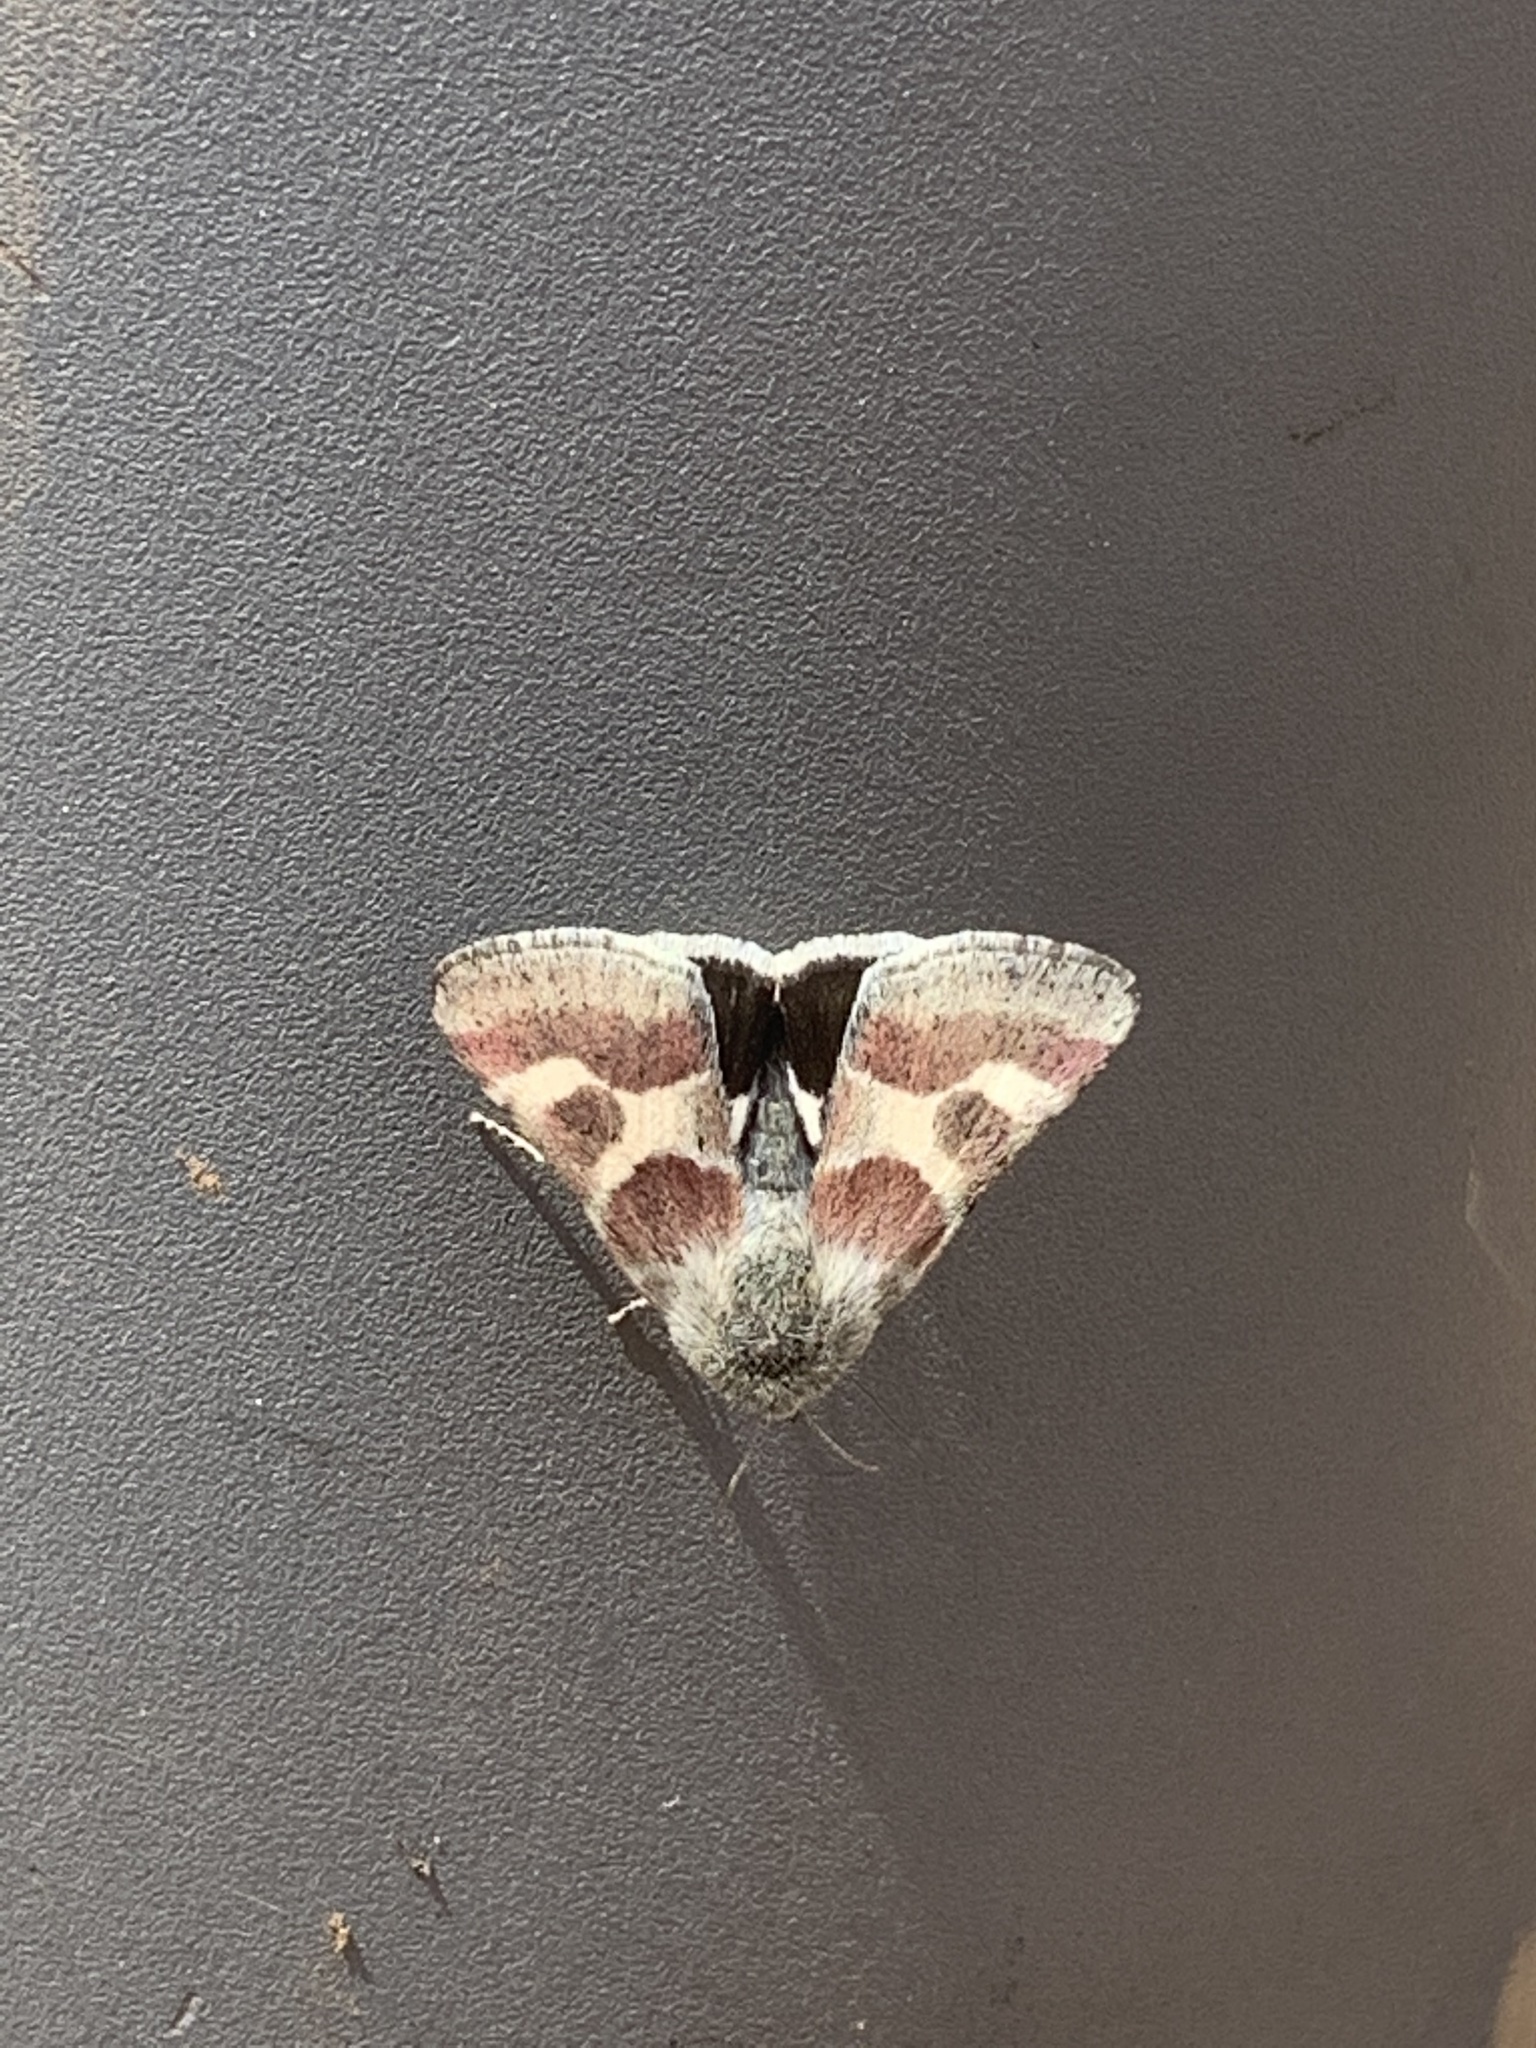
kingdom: Animalia
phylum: Arthropoda
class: Insecta
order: Lepidoptera
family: Noctuidae
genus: Schinia
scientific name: Schinia suetus
